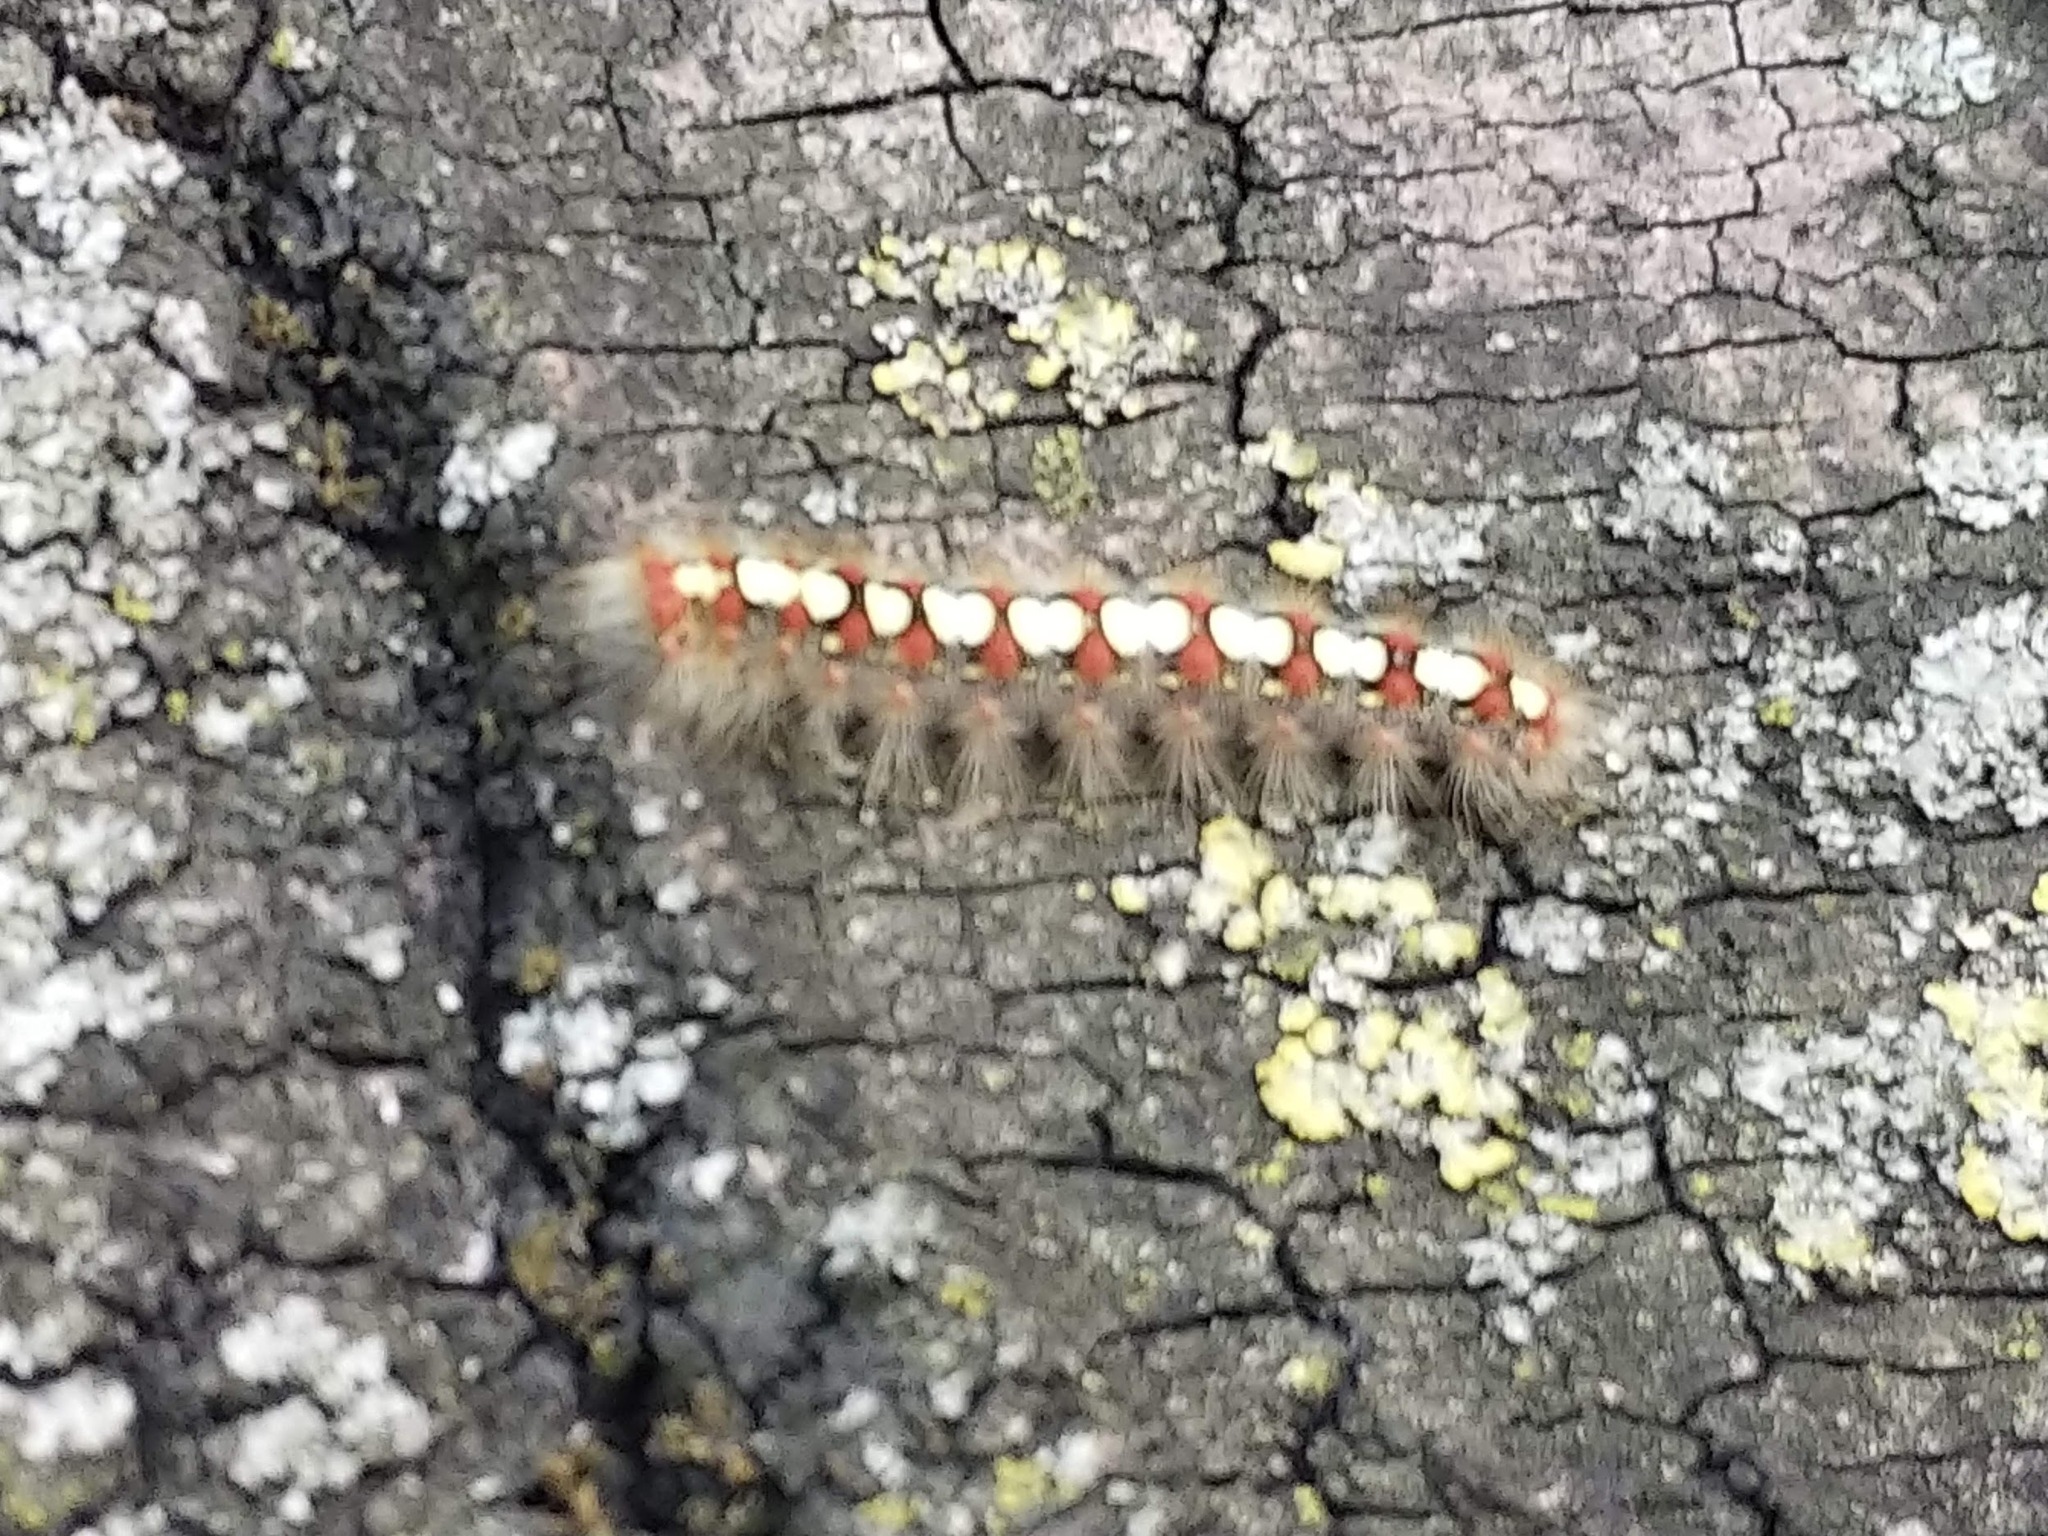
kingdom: Animalia
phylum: Arthropoda
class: Insecta
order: Lepidoptera
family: Erebidae
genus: Leucoma
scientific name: Leucoma salicis
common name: White satin moth
